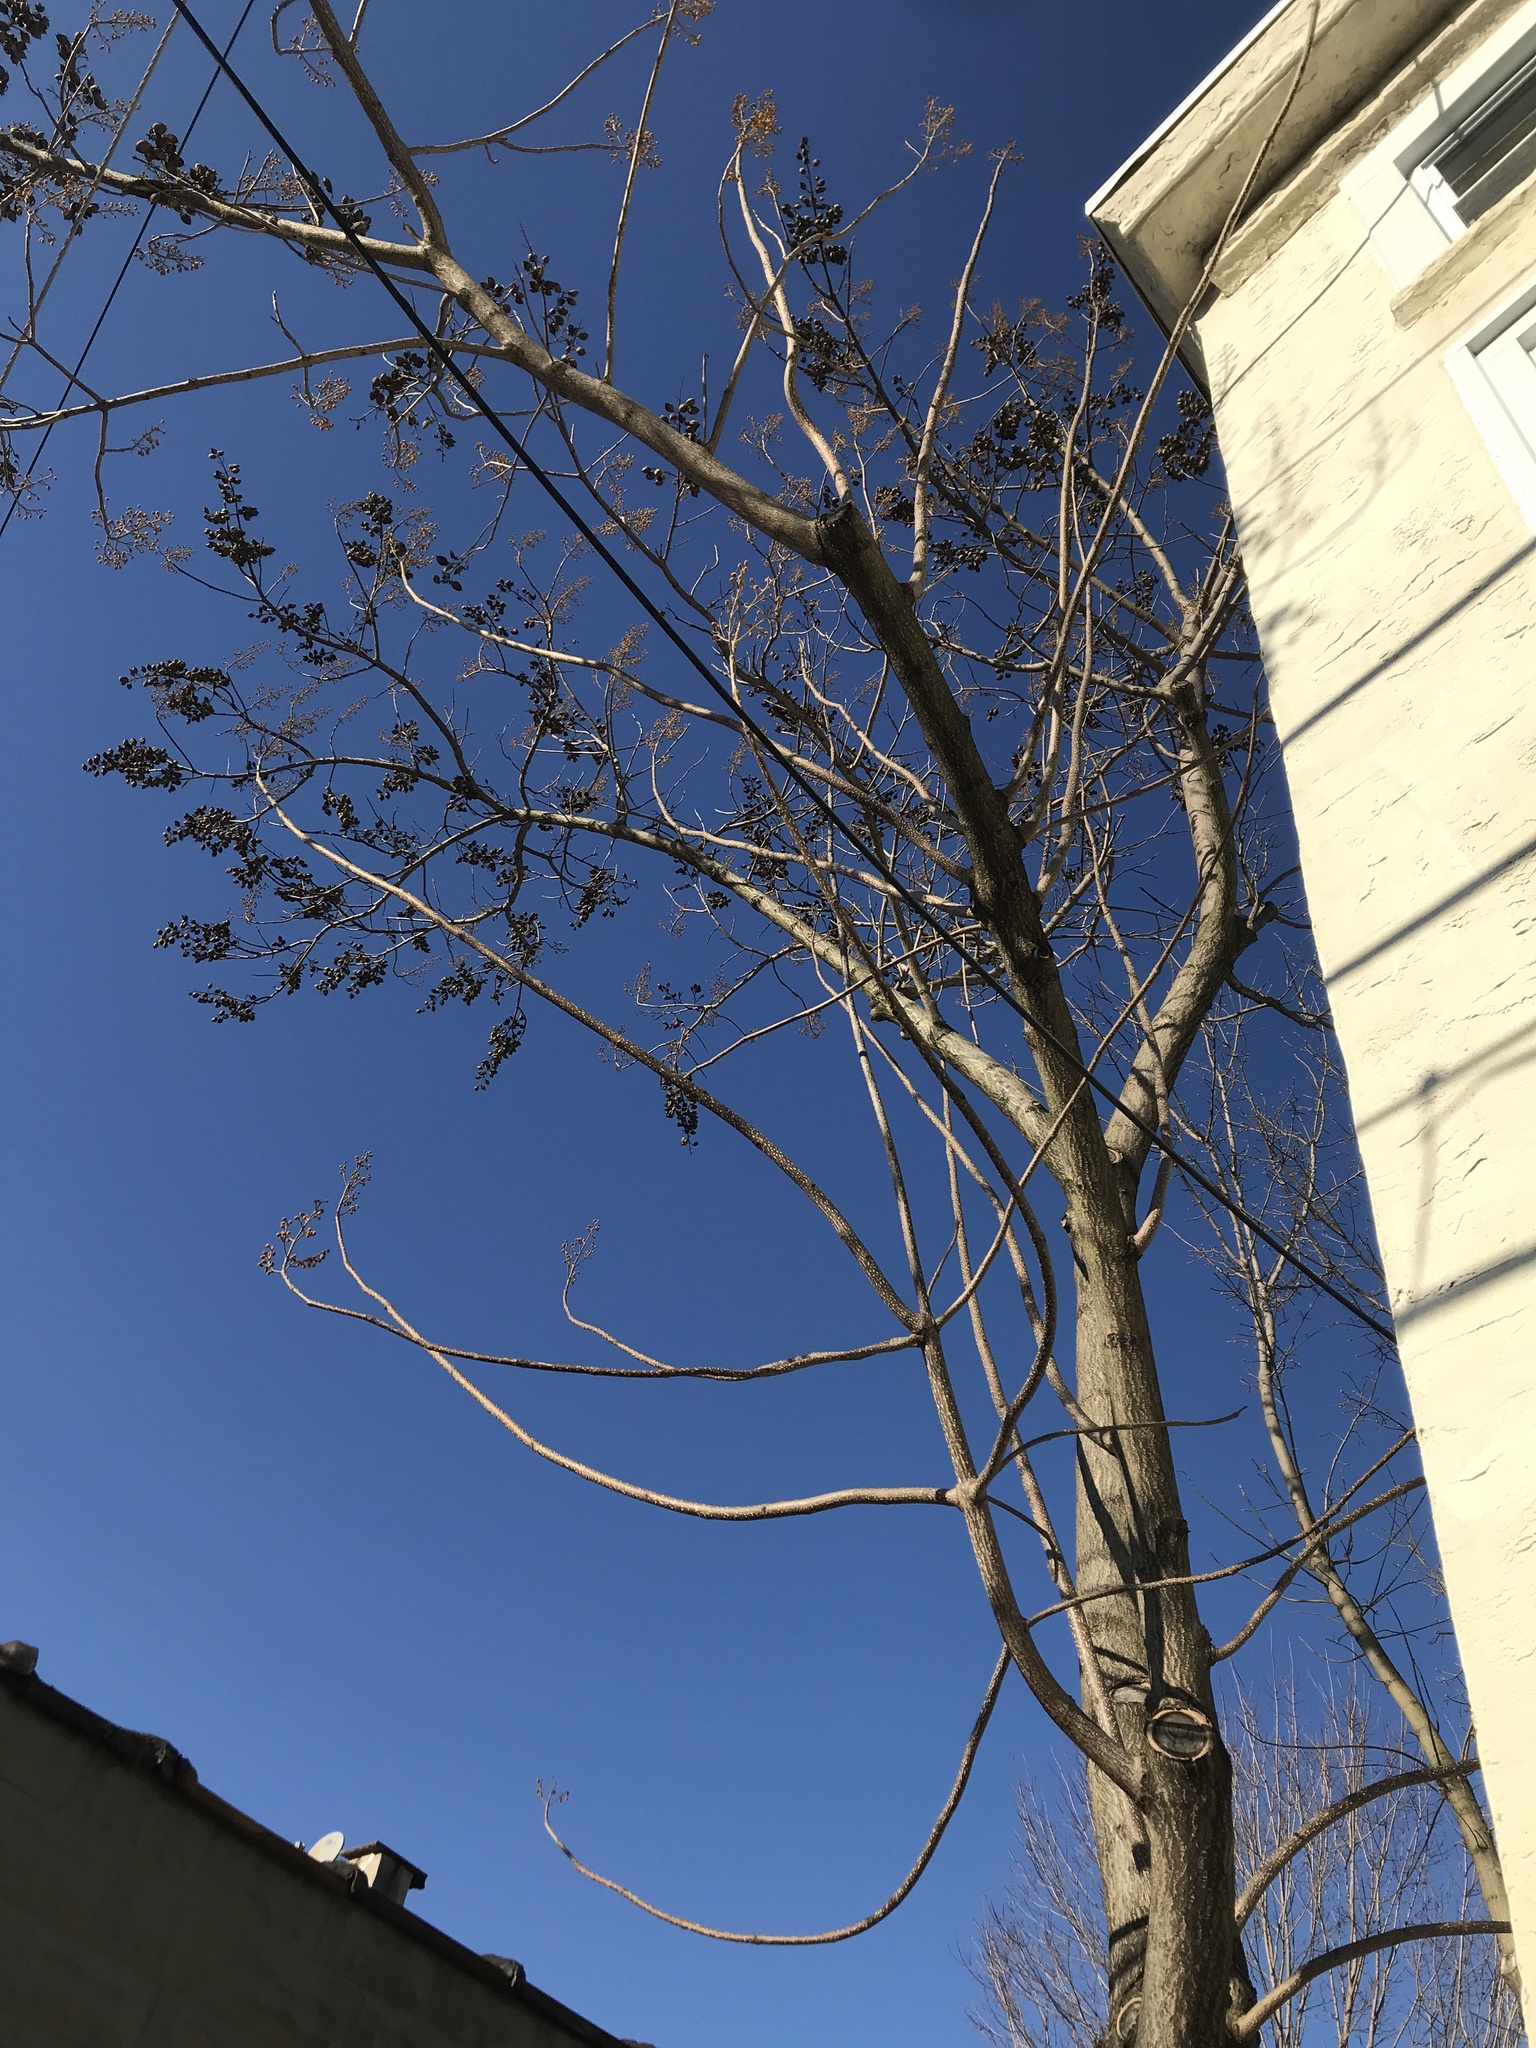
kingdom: Plantae
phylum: Tracheophyta
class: Magnoliopsida
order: Lamiales
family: Paulowniaceae
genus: Paulownia
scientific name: Paulownia tomentosa
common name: Foxglove-tree
